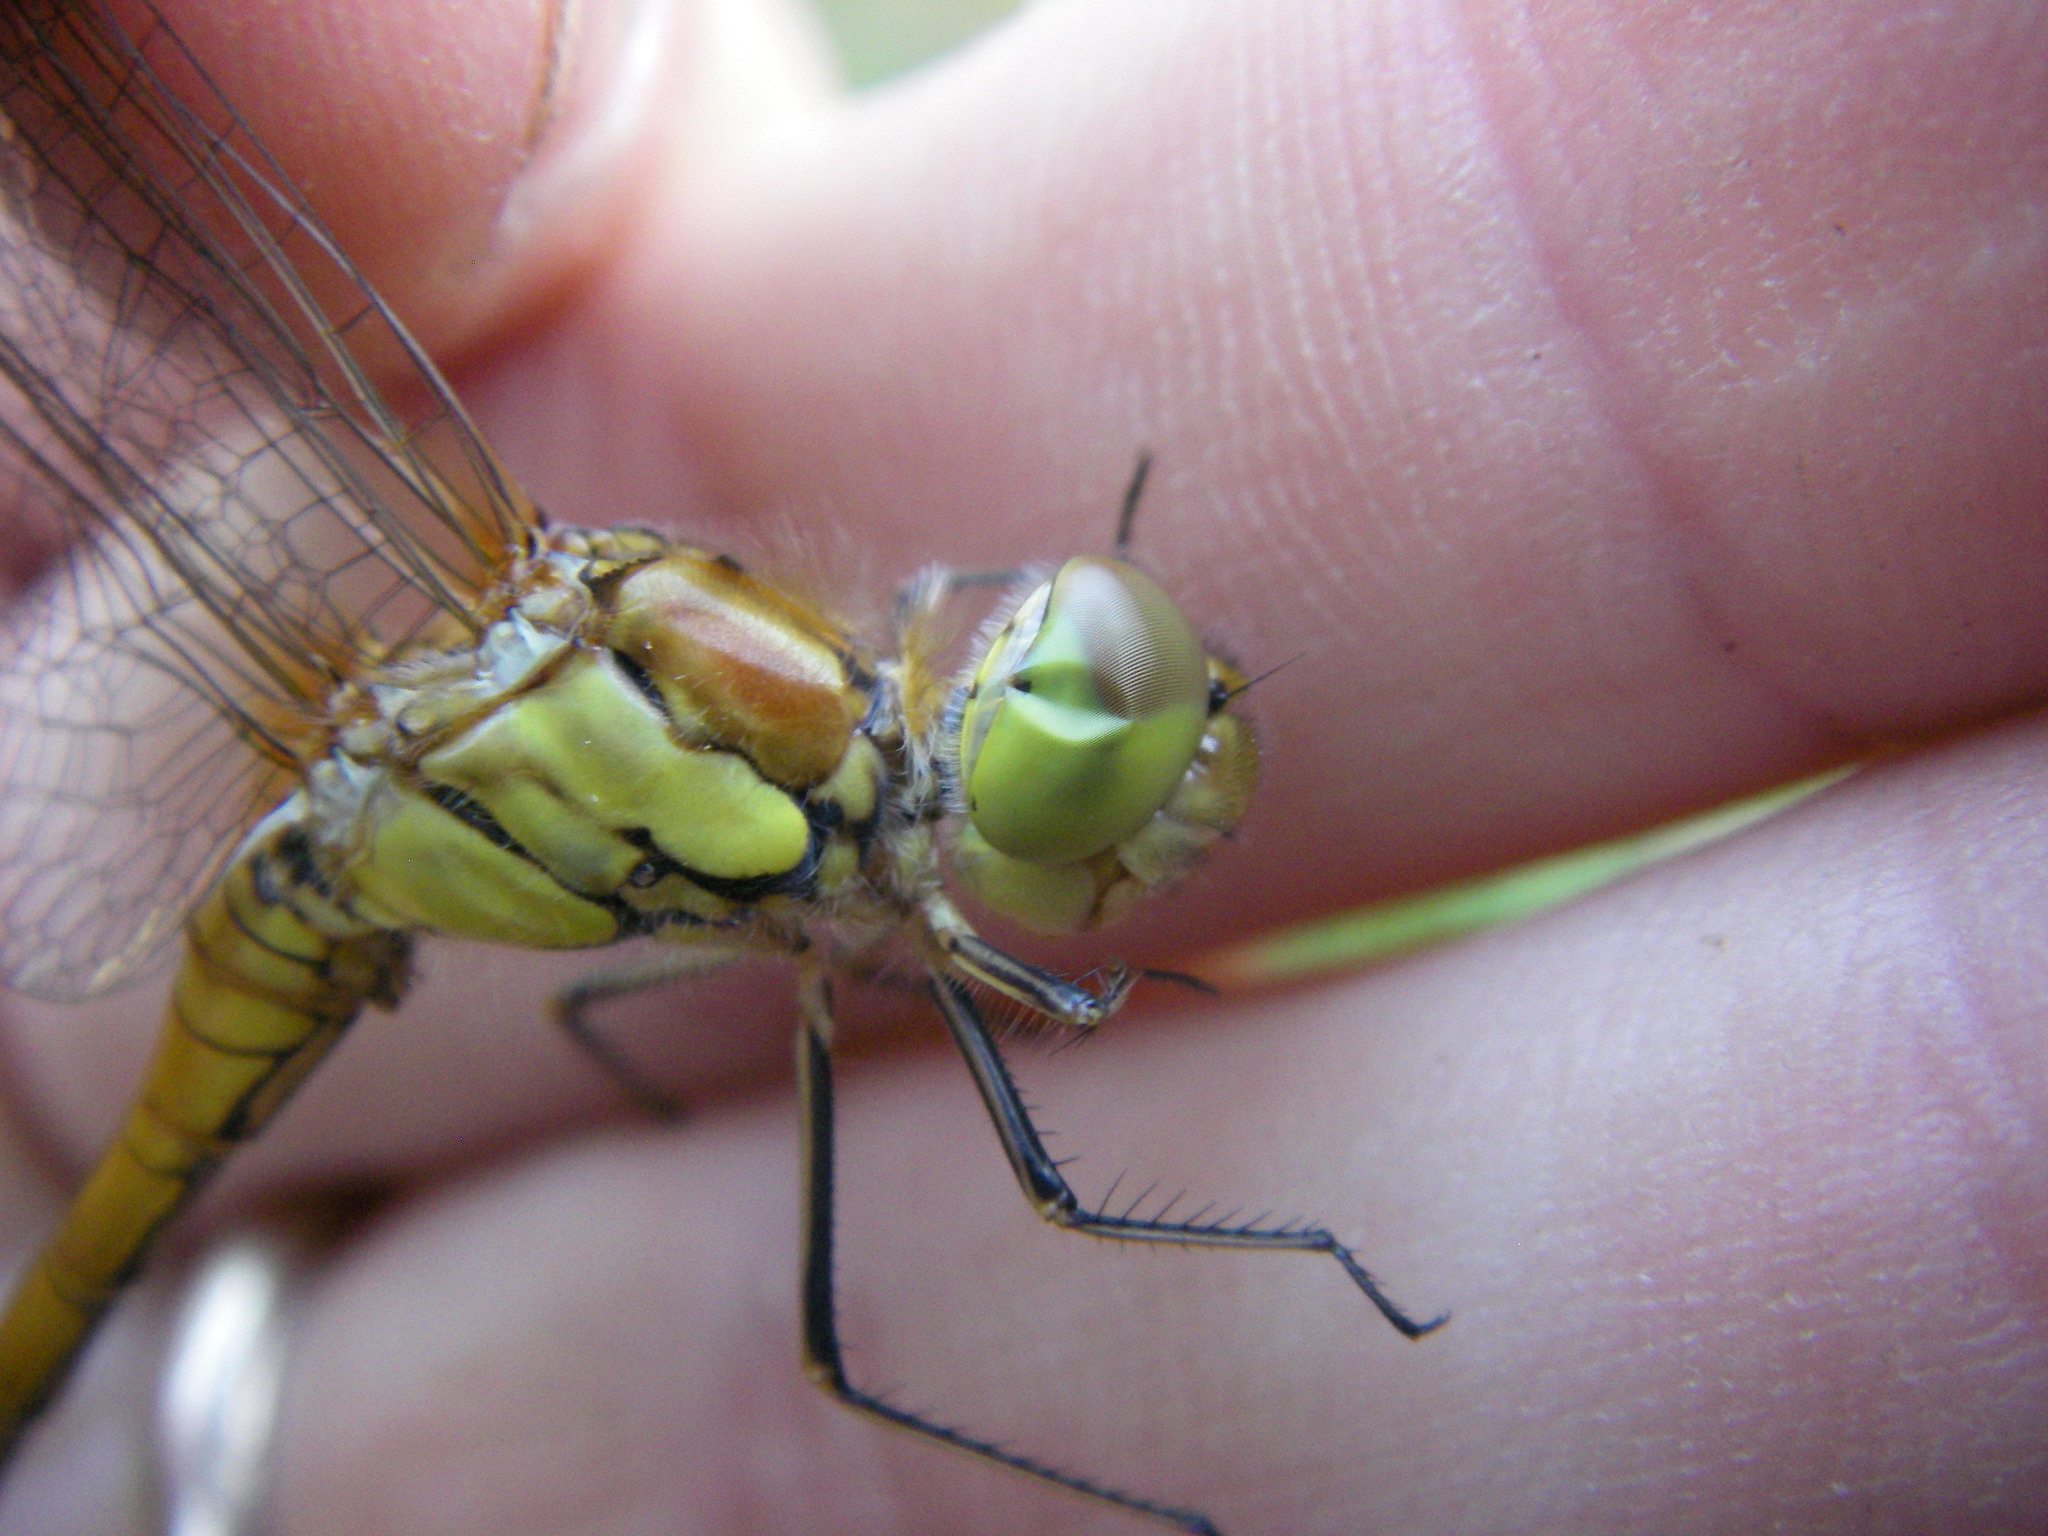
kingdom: Animalia
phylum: Arthropoda
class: Insecta
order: Odonata
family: Libellulidae
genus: Sympetrum
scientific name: Sympetrum striolatum
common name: Common darter
